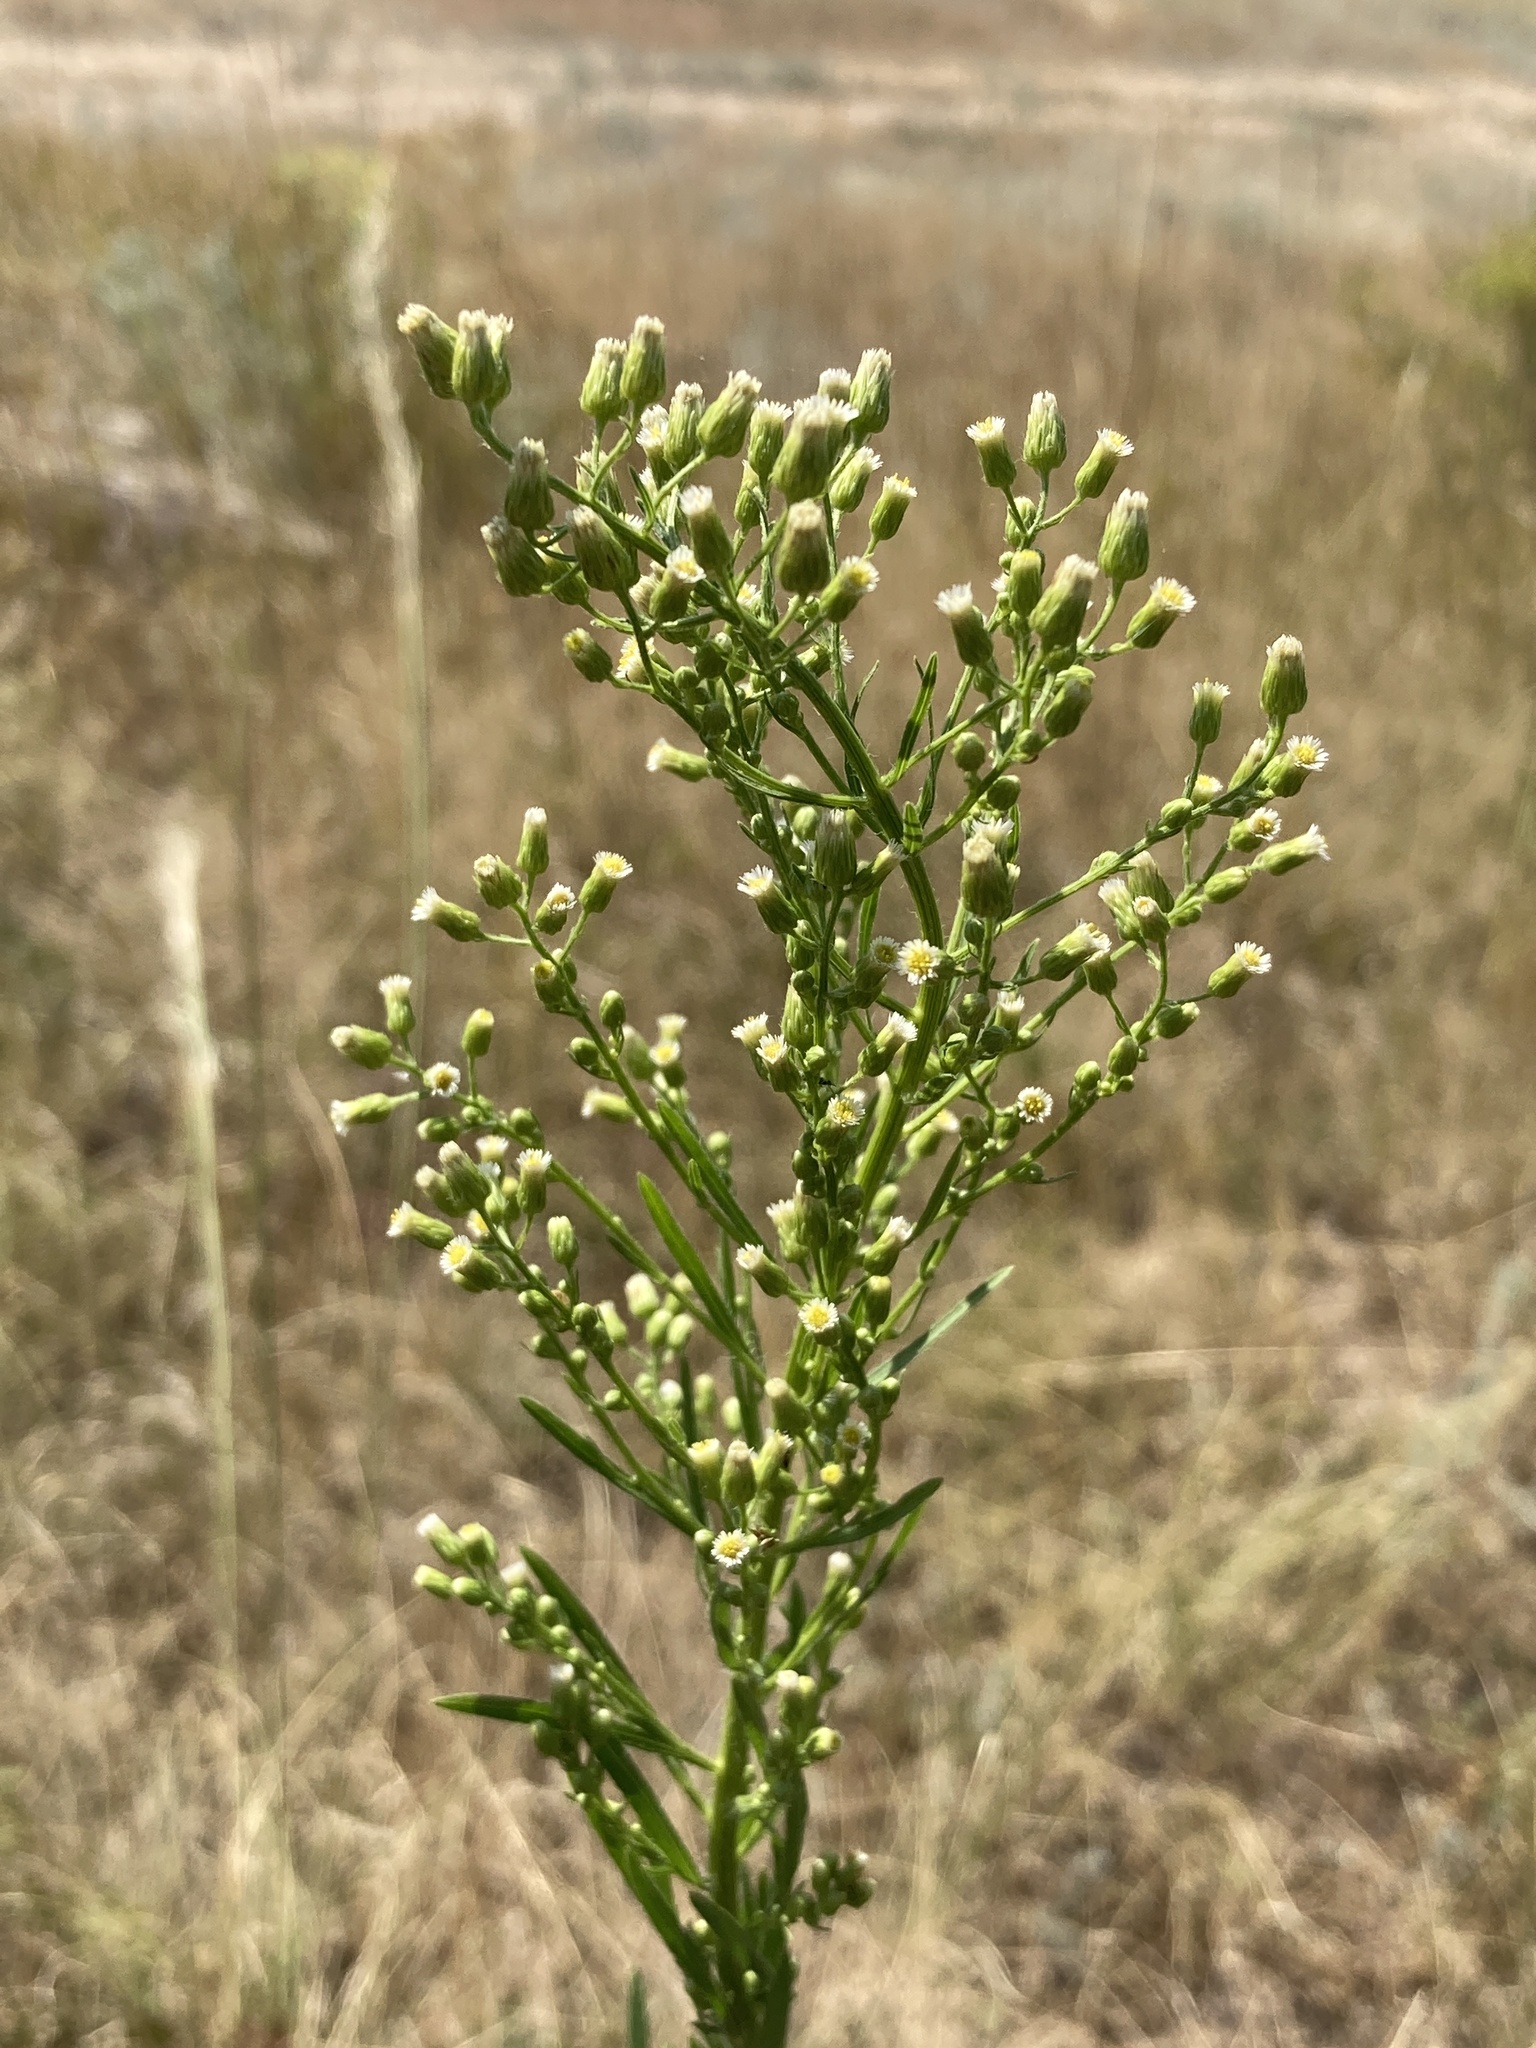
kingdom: Plantae
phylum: Tracheophyta
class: Magnoliopsida
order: Asterales
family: Asteraceae
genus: Erigeron
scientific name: Erigeron canadensis
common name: Canadian fleabane
